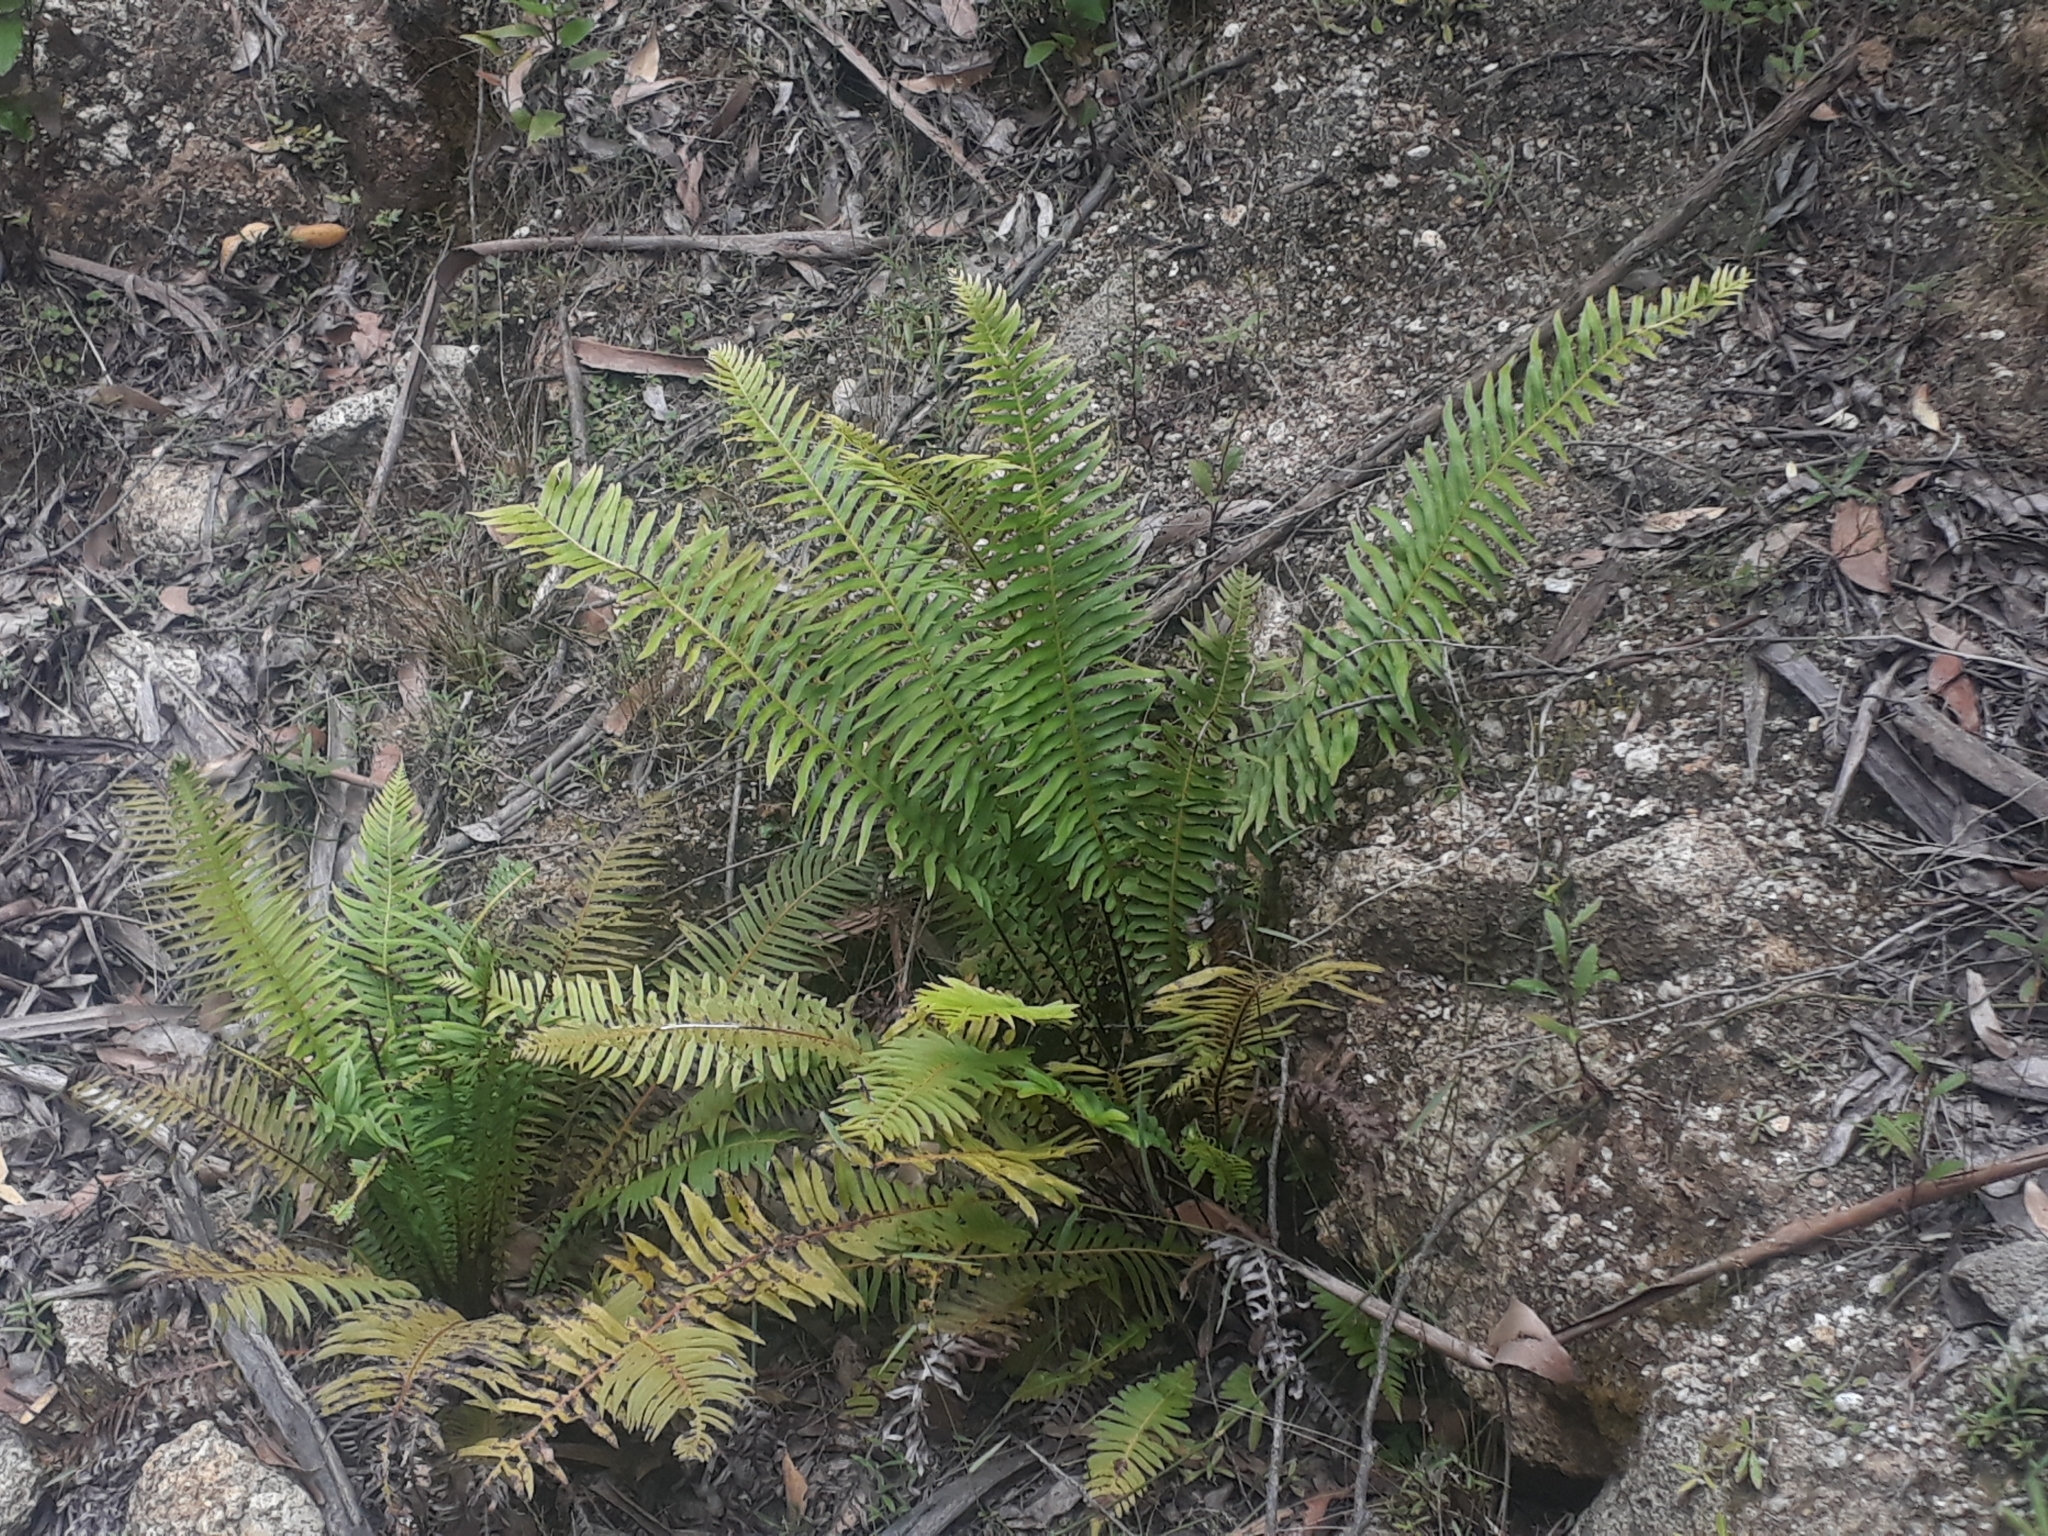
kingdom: Plantae
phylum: Tracheophyta
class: Polypodiopsida
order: Polypodiales
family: Blechnaceae
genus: Lomaria
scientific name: Lomaria nuda
